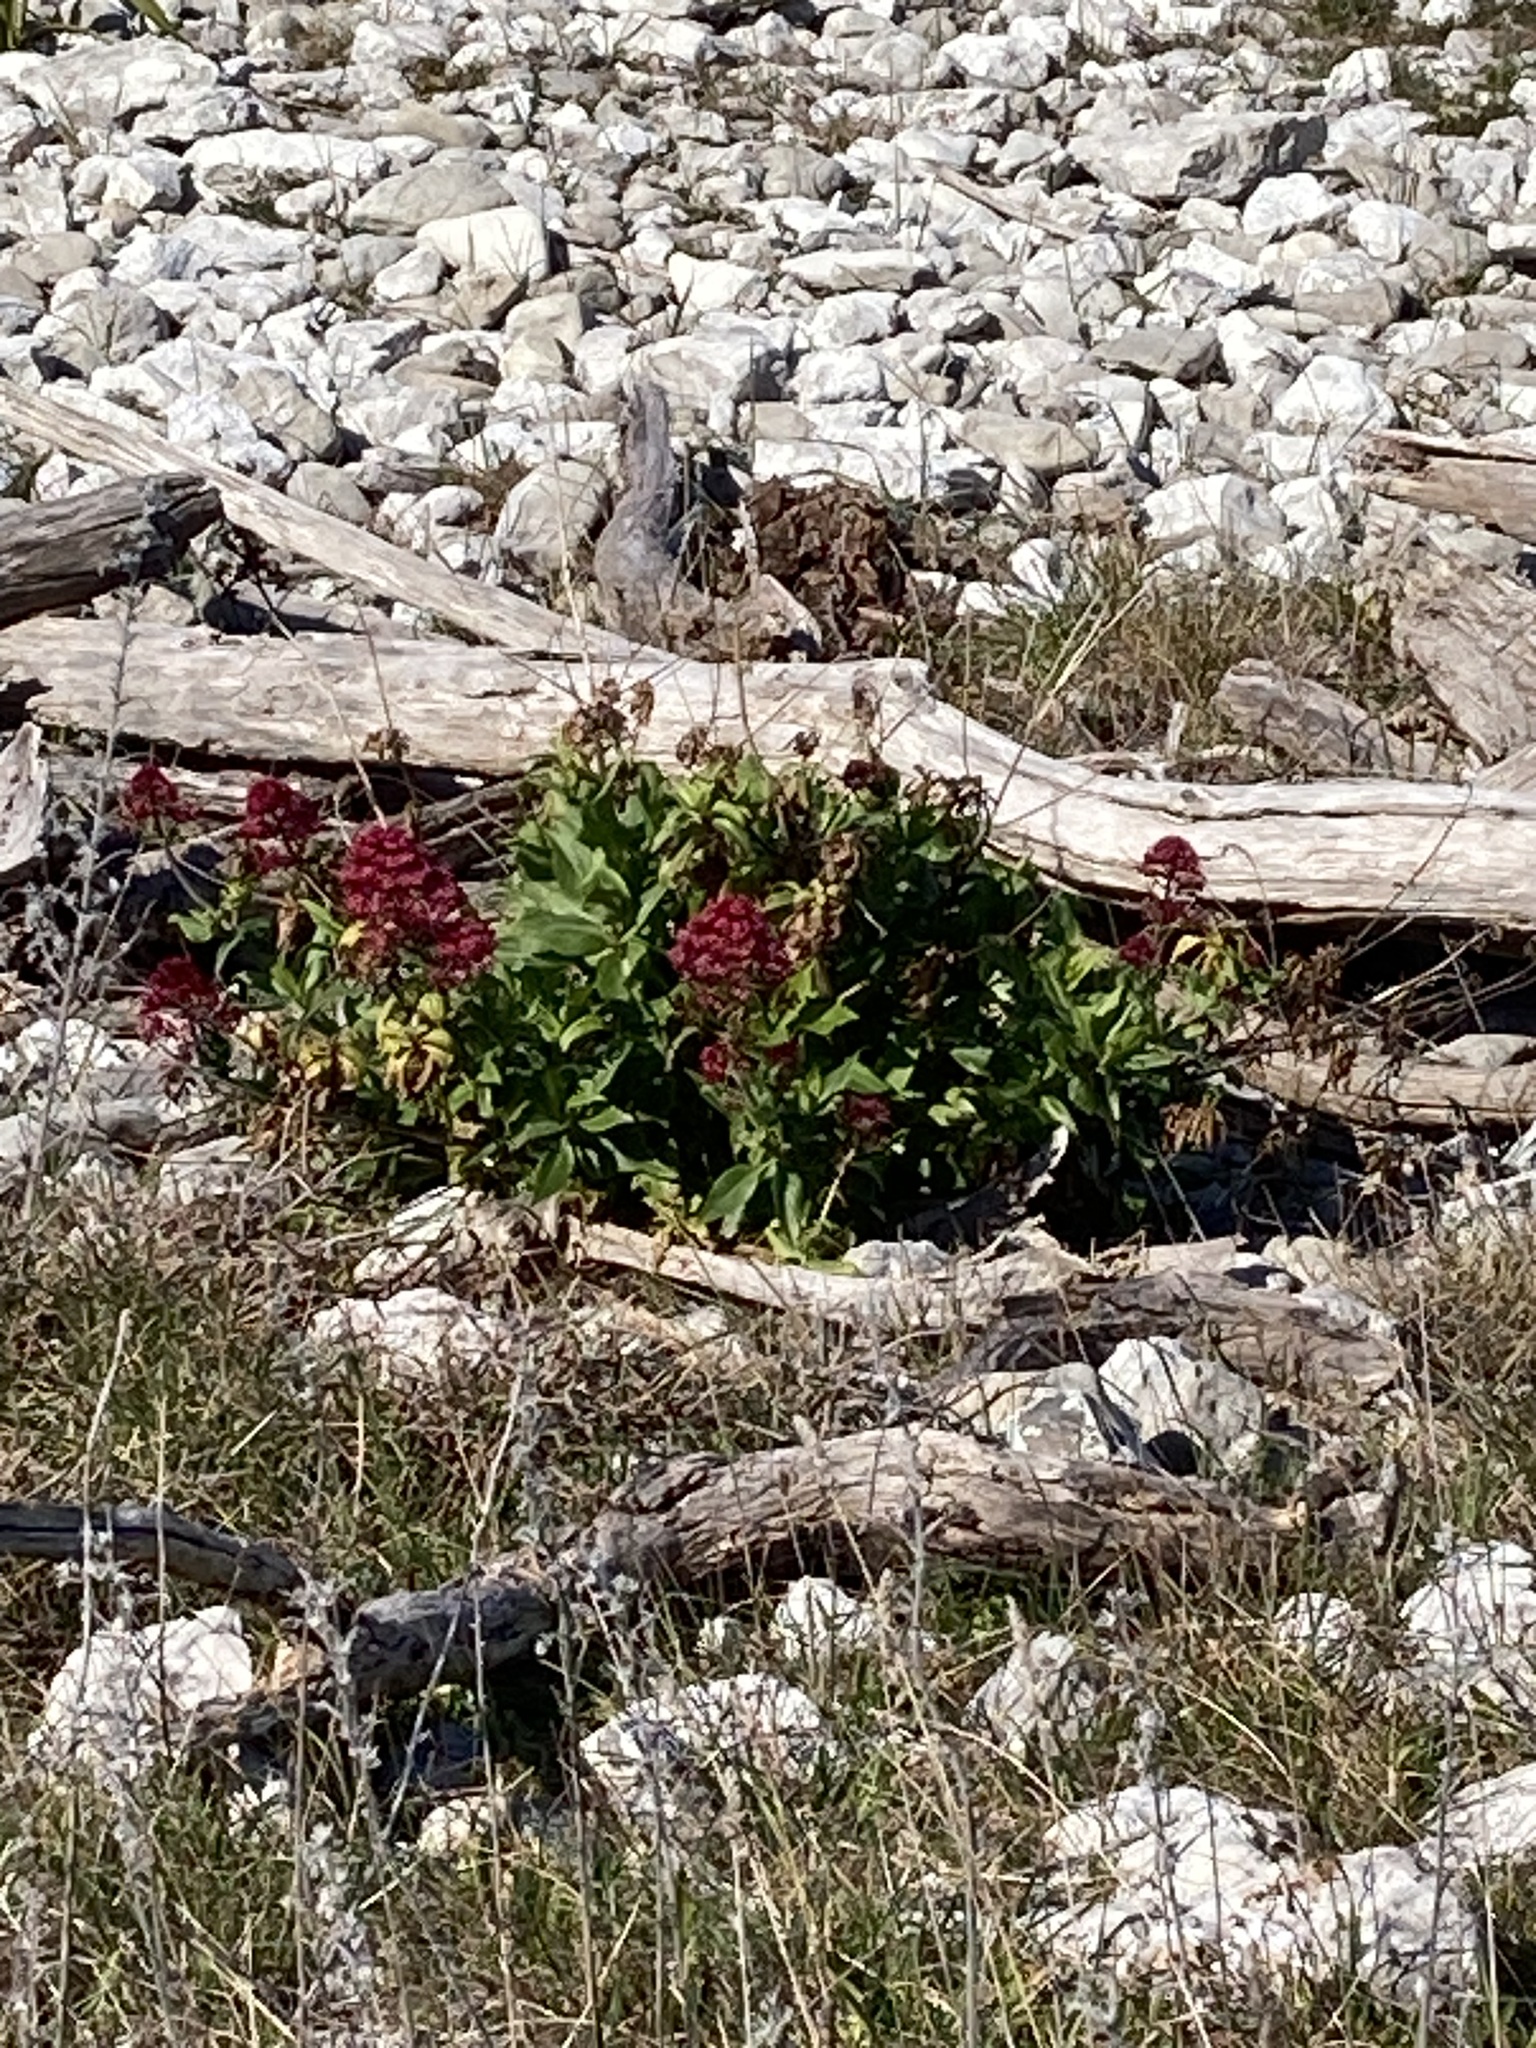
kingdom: Plantae
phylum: Tracheophyta
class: Magnoliopsida
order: Dipsacales
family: Caprifoliaceae
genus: Centranthus
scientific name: Centranthus ruber
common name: Red valerian
